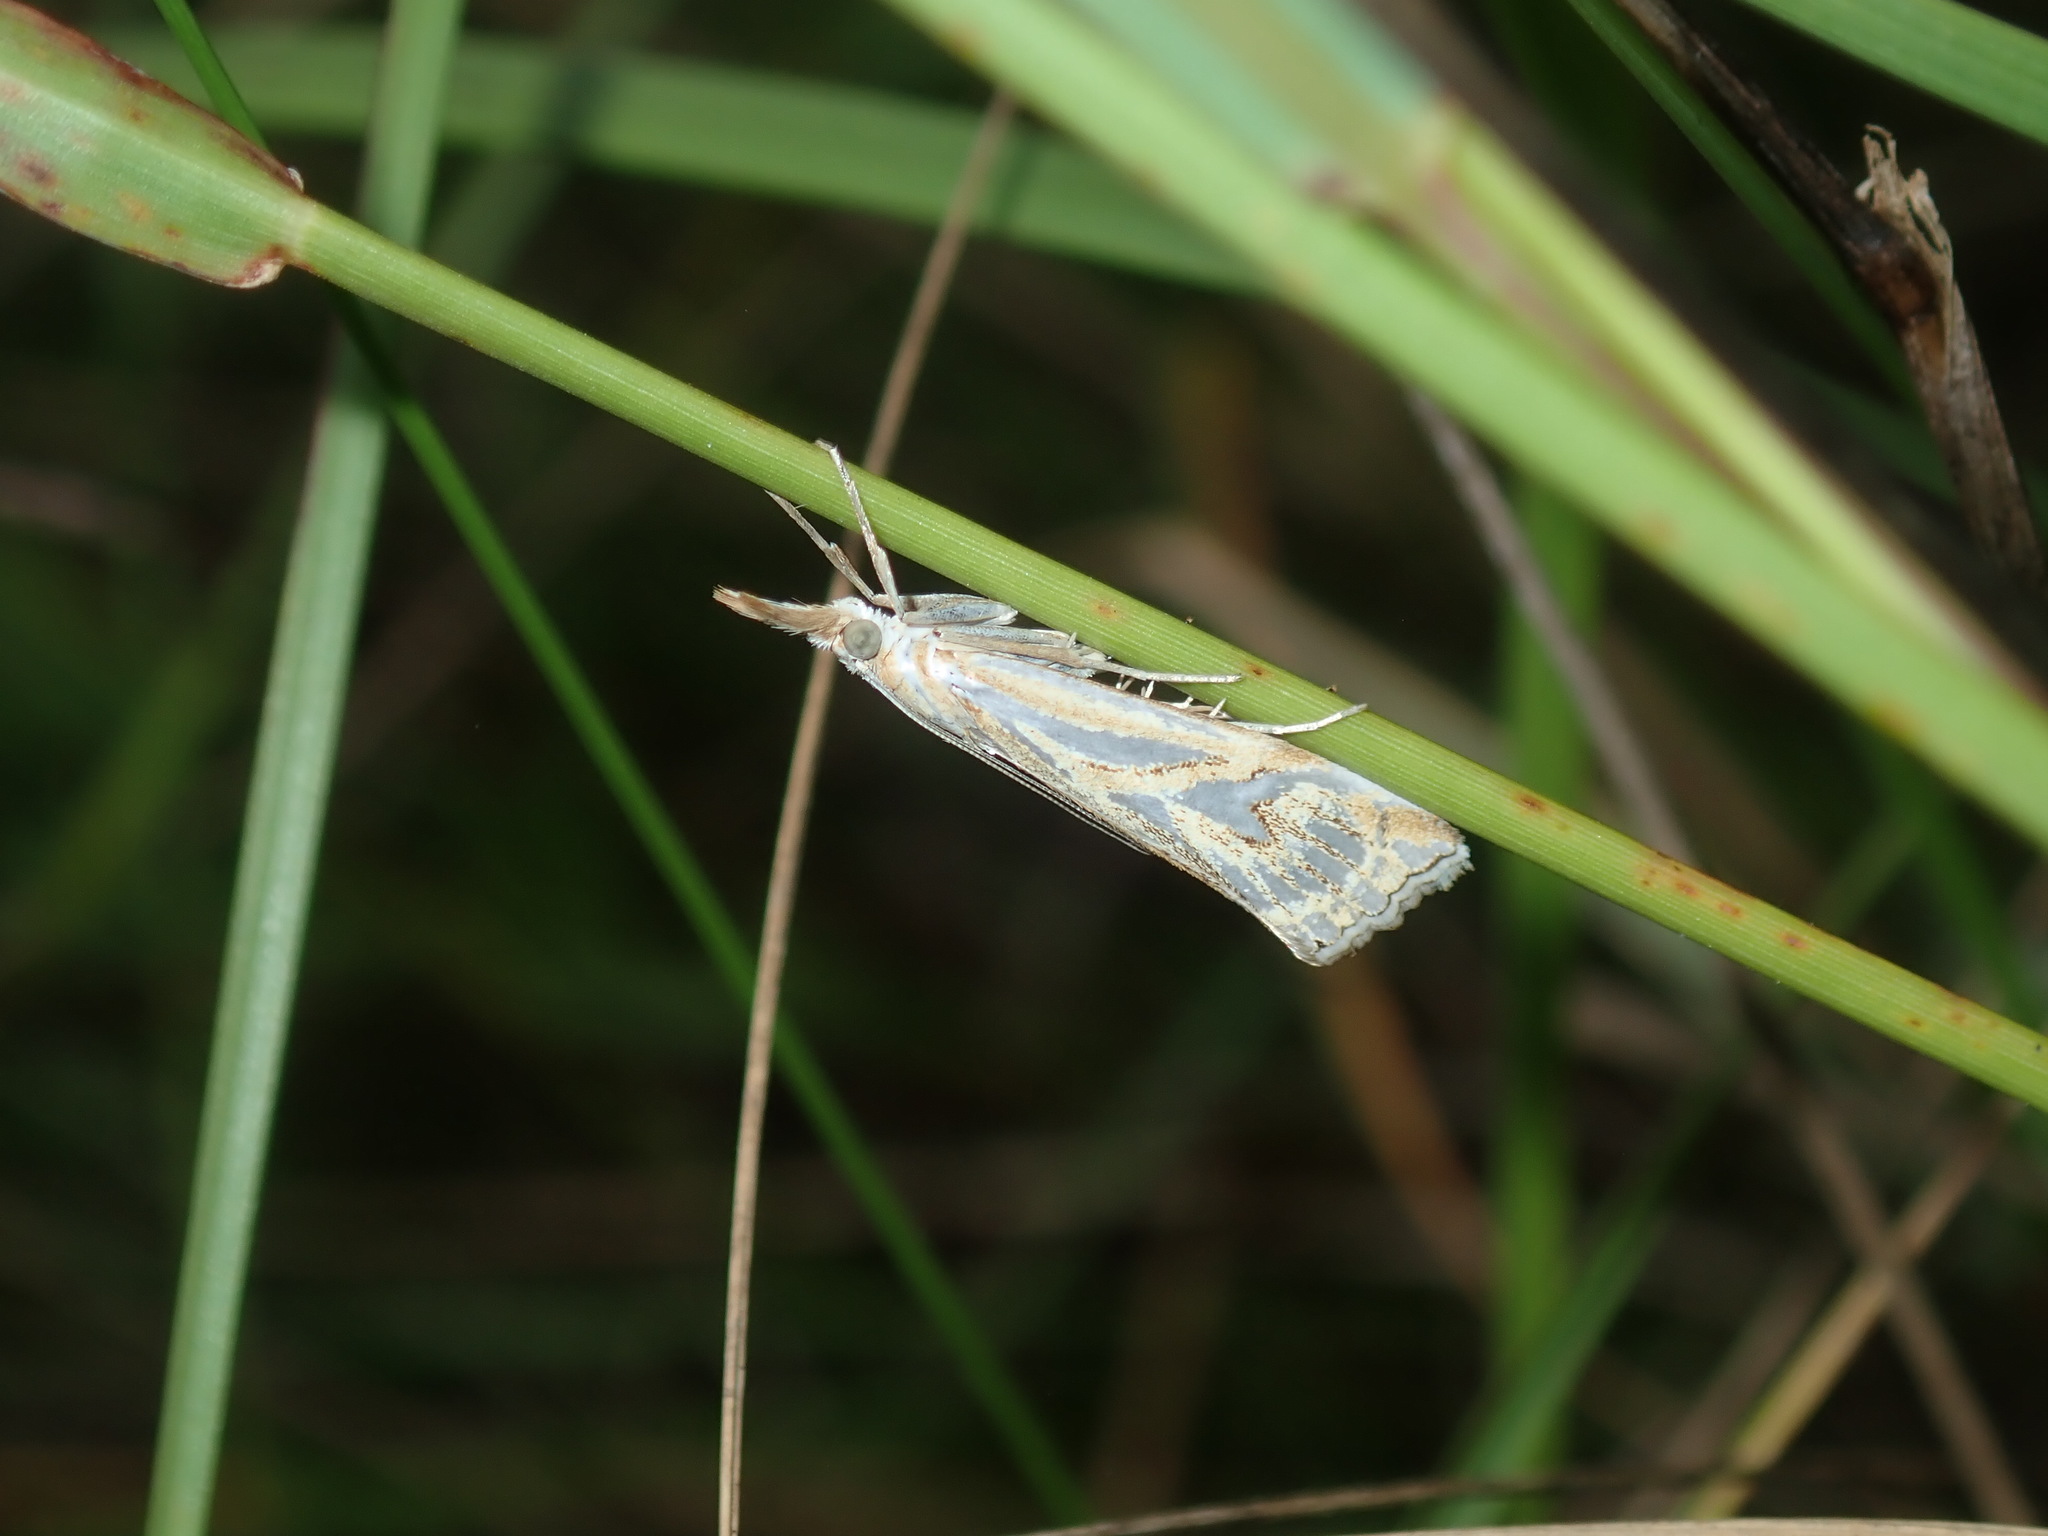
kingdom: Animalia
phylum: Arthropoda
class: Insecta
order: Lepidoptera
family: Crambidae
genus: Hednota
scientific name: Hednota pleniferellus
